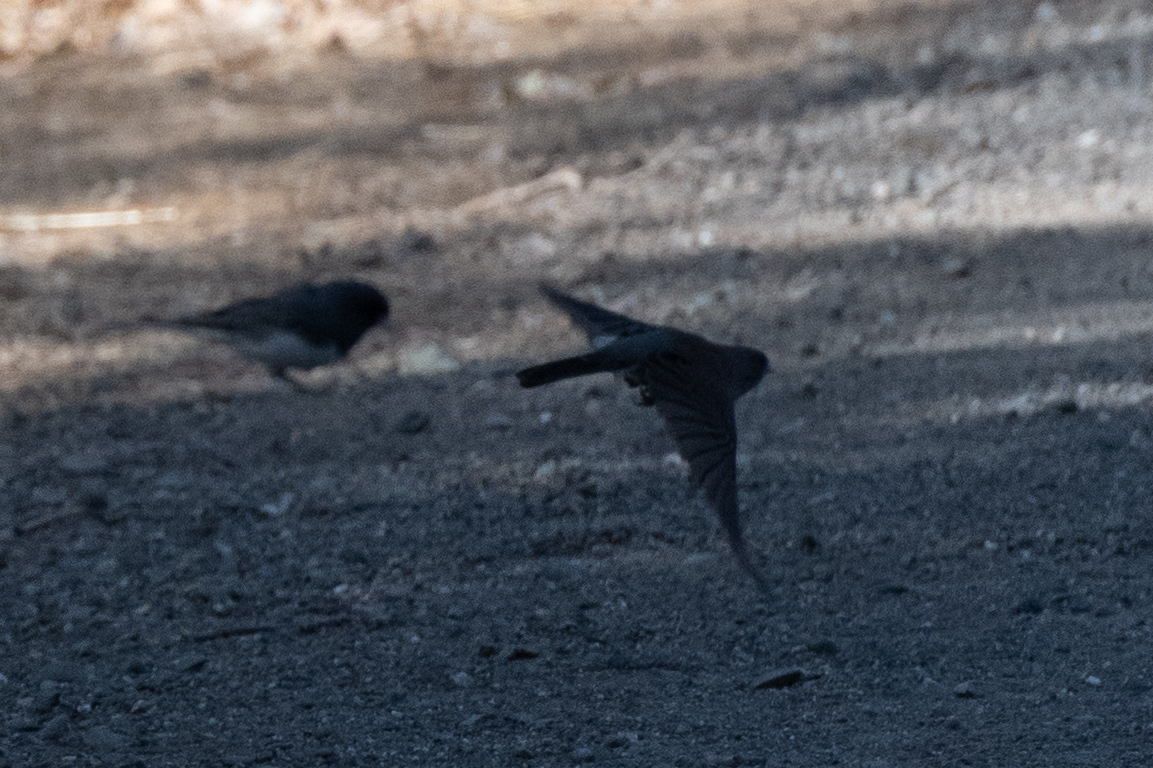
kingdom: Animalia
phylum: Chordata
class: Aves
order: Passeriformes
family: Passerellidae
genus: Junco
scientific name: Junco hyemalis
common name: Dark-eyed junco
